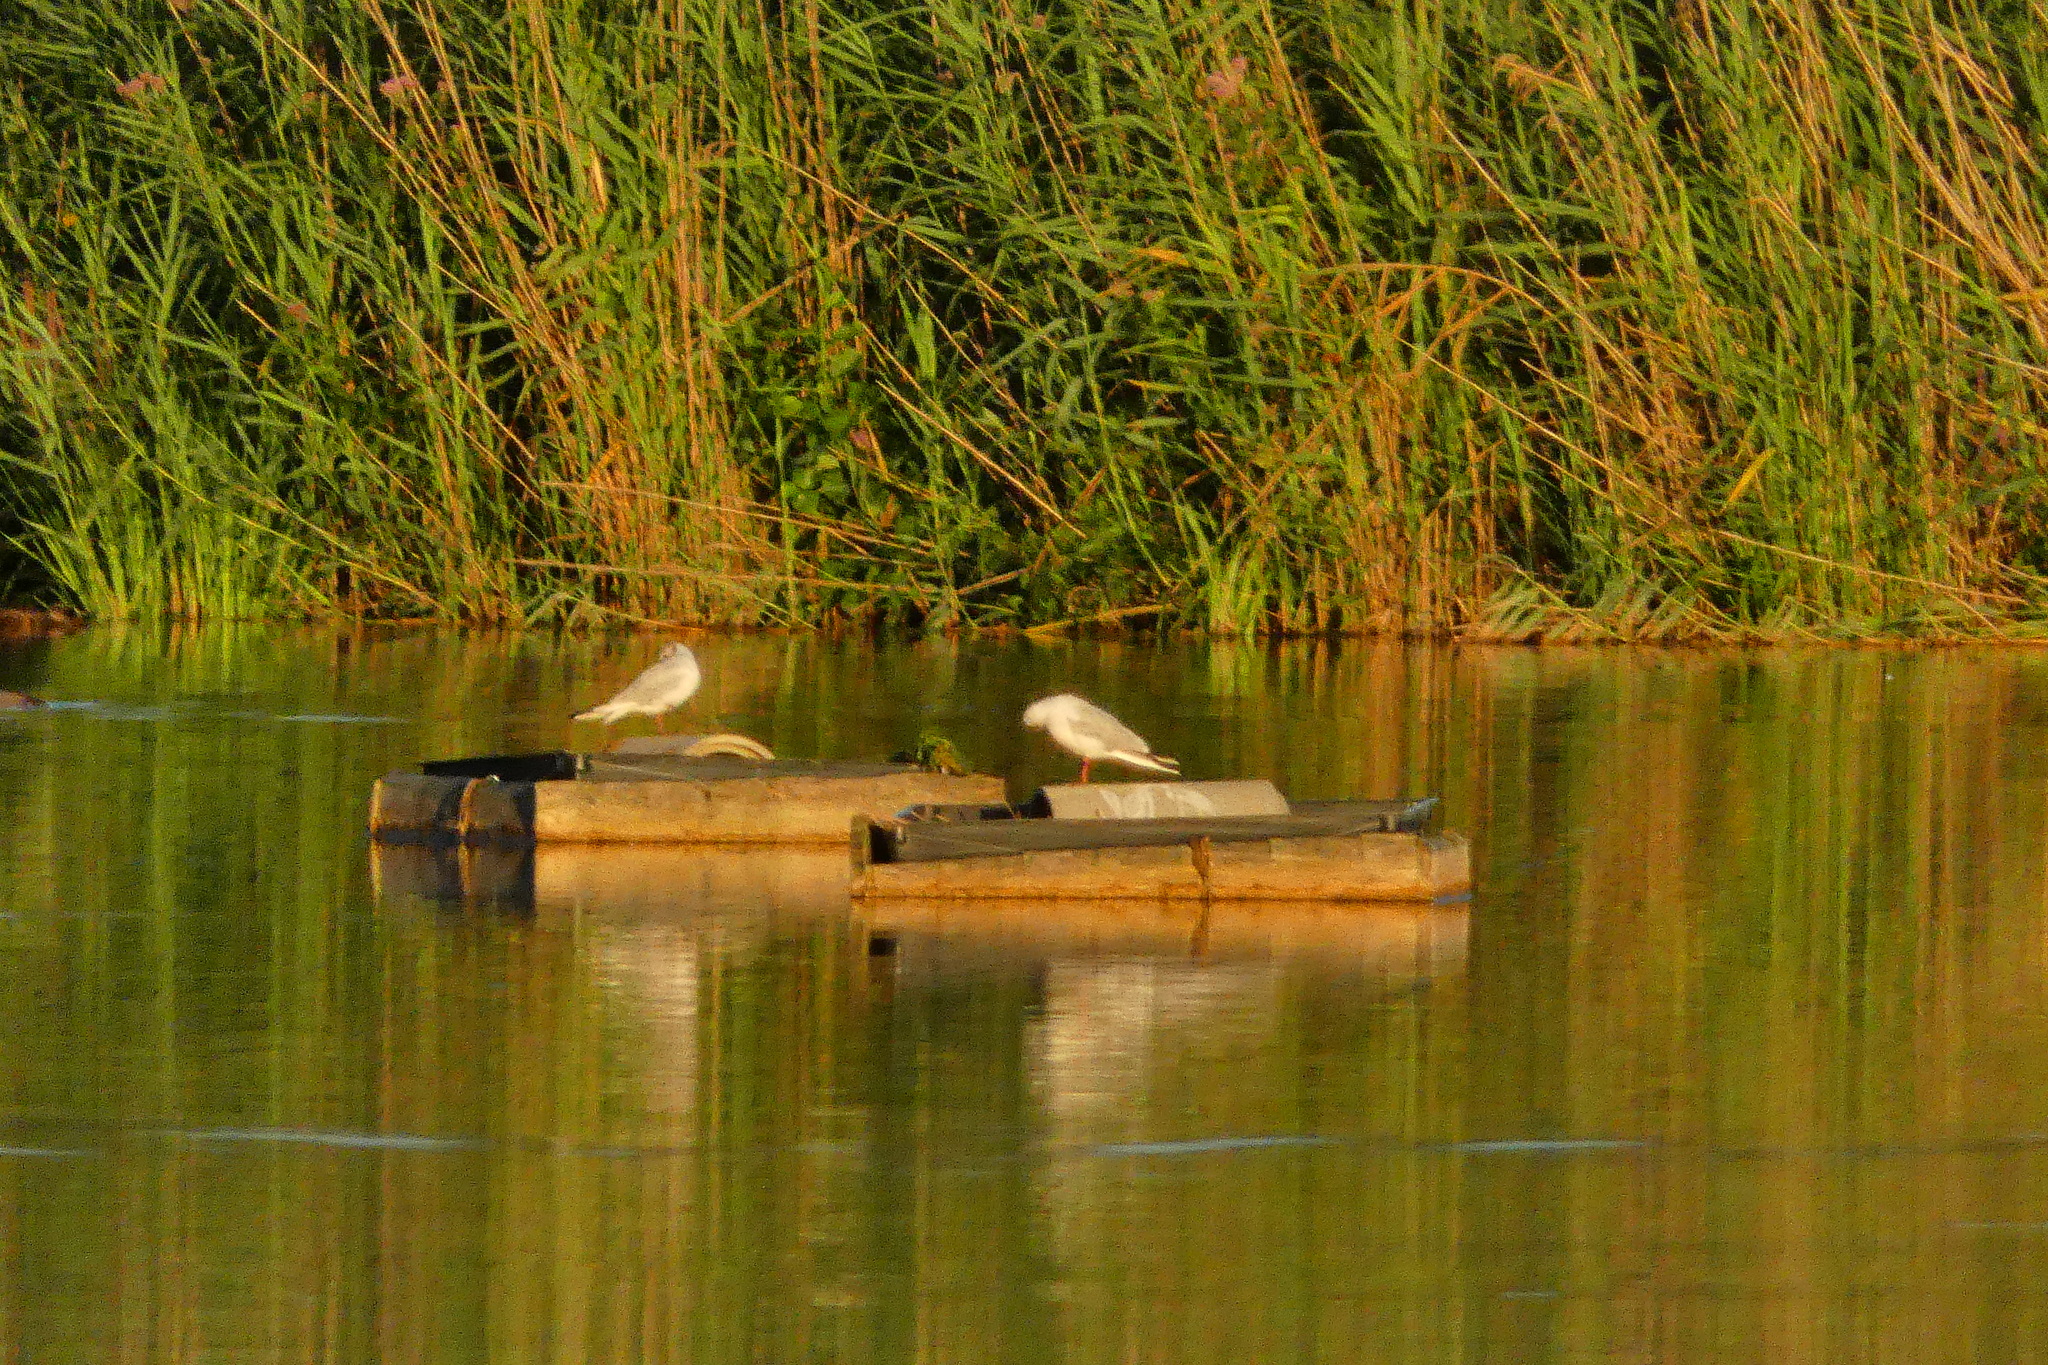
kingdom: Animalia
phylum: Chordata
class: Aves
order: Charadriiformes
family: Laridae
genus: Chroicocephalus
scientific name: Chroicocephalus ridibundus
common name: Black-headed gull
